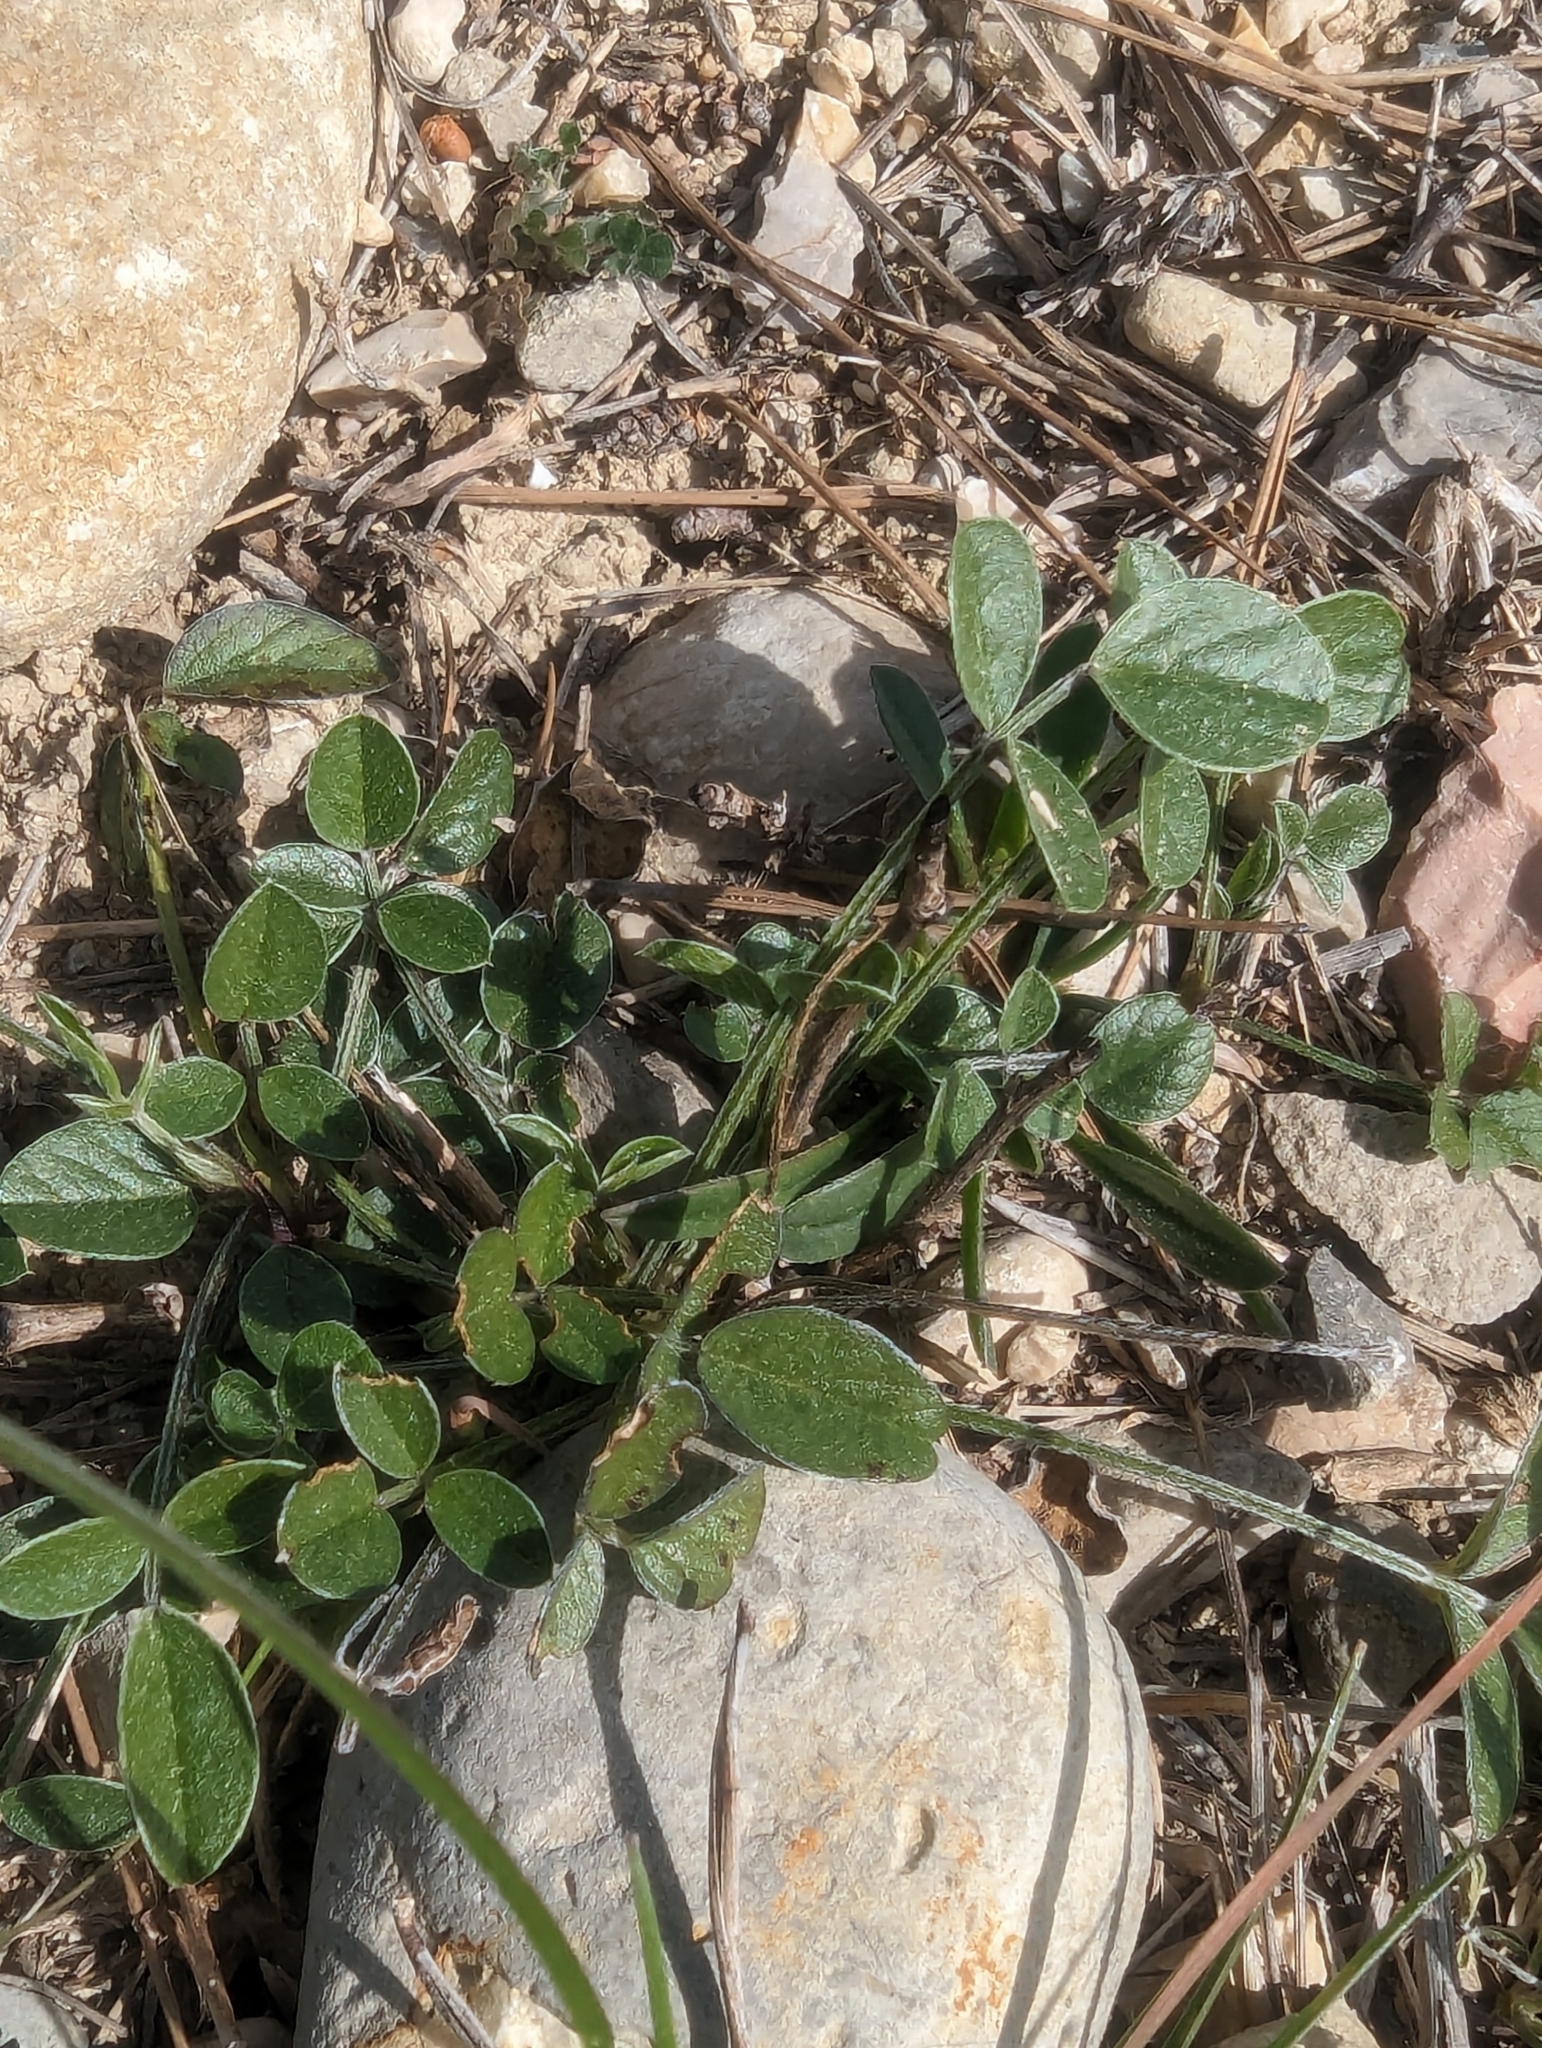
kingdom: Plantae
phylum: Tracheophyta
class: Magnoliopsida
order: Fabales
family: Fabaceae
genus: Bituminaria
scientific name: Bituminaria bituminosa
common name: Arabian pea
